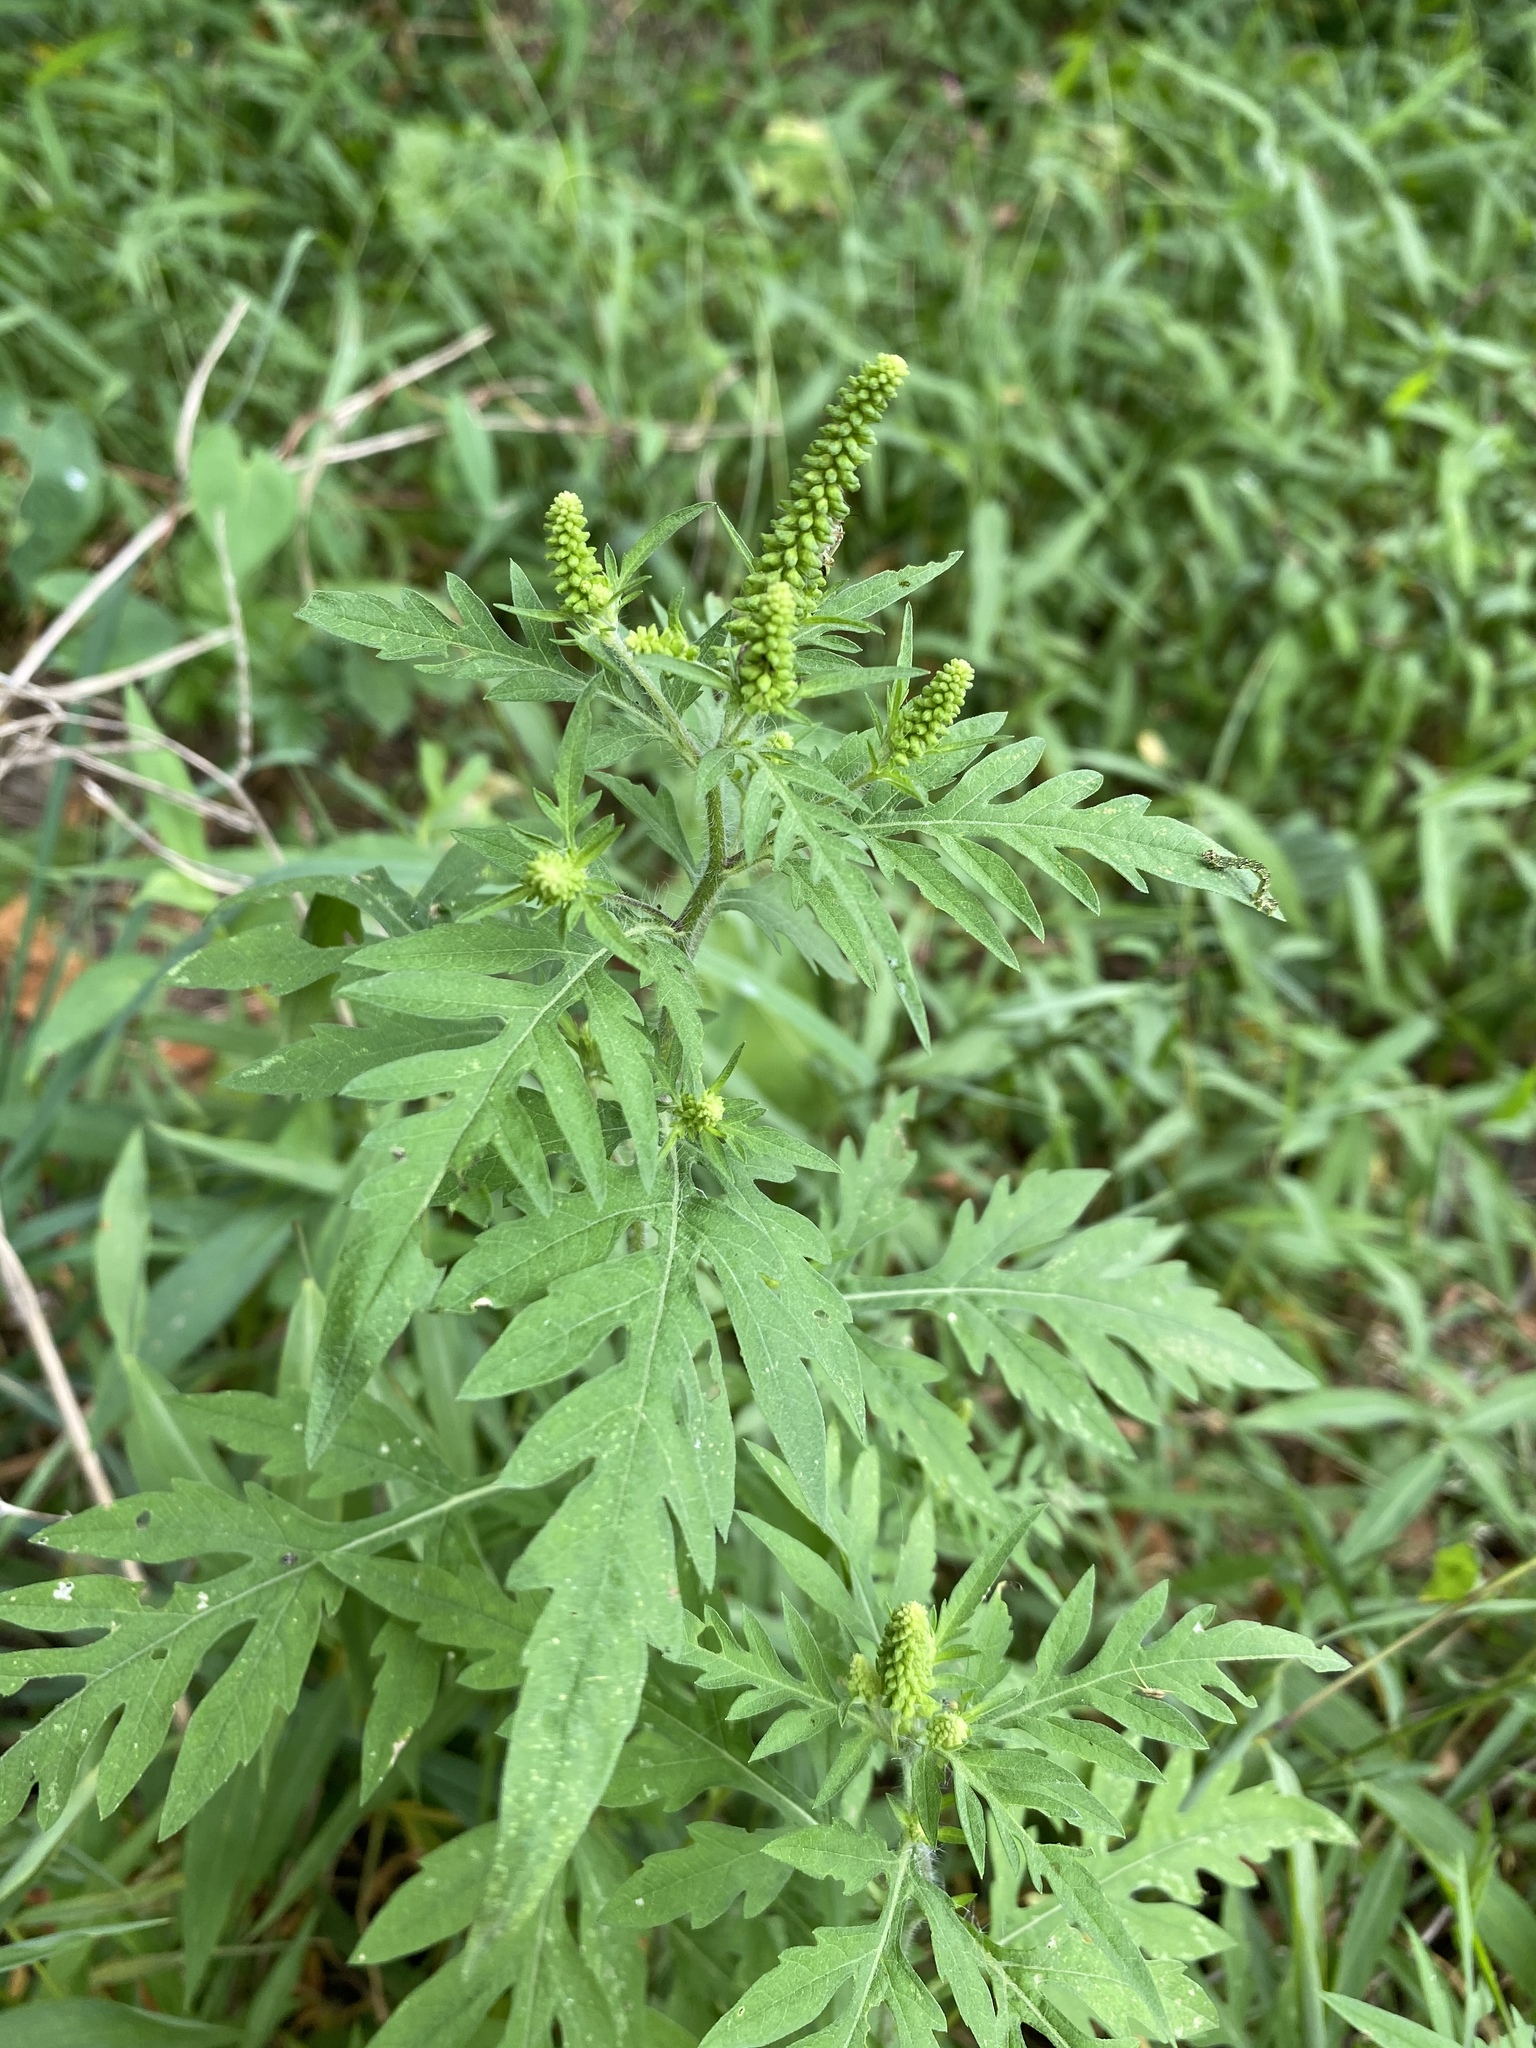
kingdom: Plantae
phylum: Tracheophyta
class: Magnoliopsida
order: Asterales
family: Asteraceae
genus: Ambrosia
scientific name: Ambrosia artemisiifolia
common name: Annual ragweed
